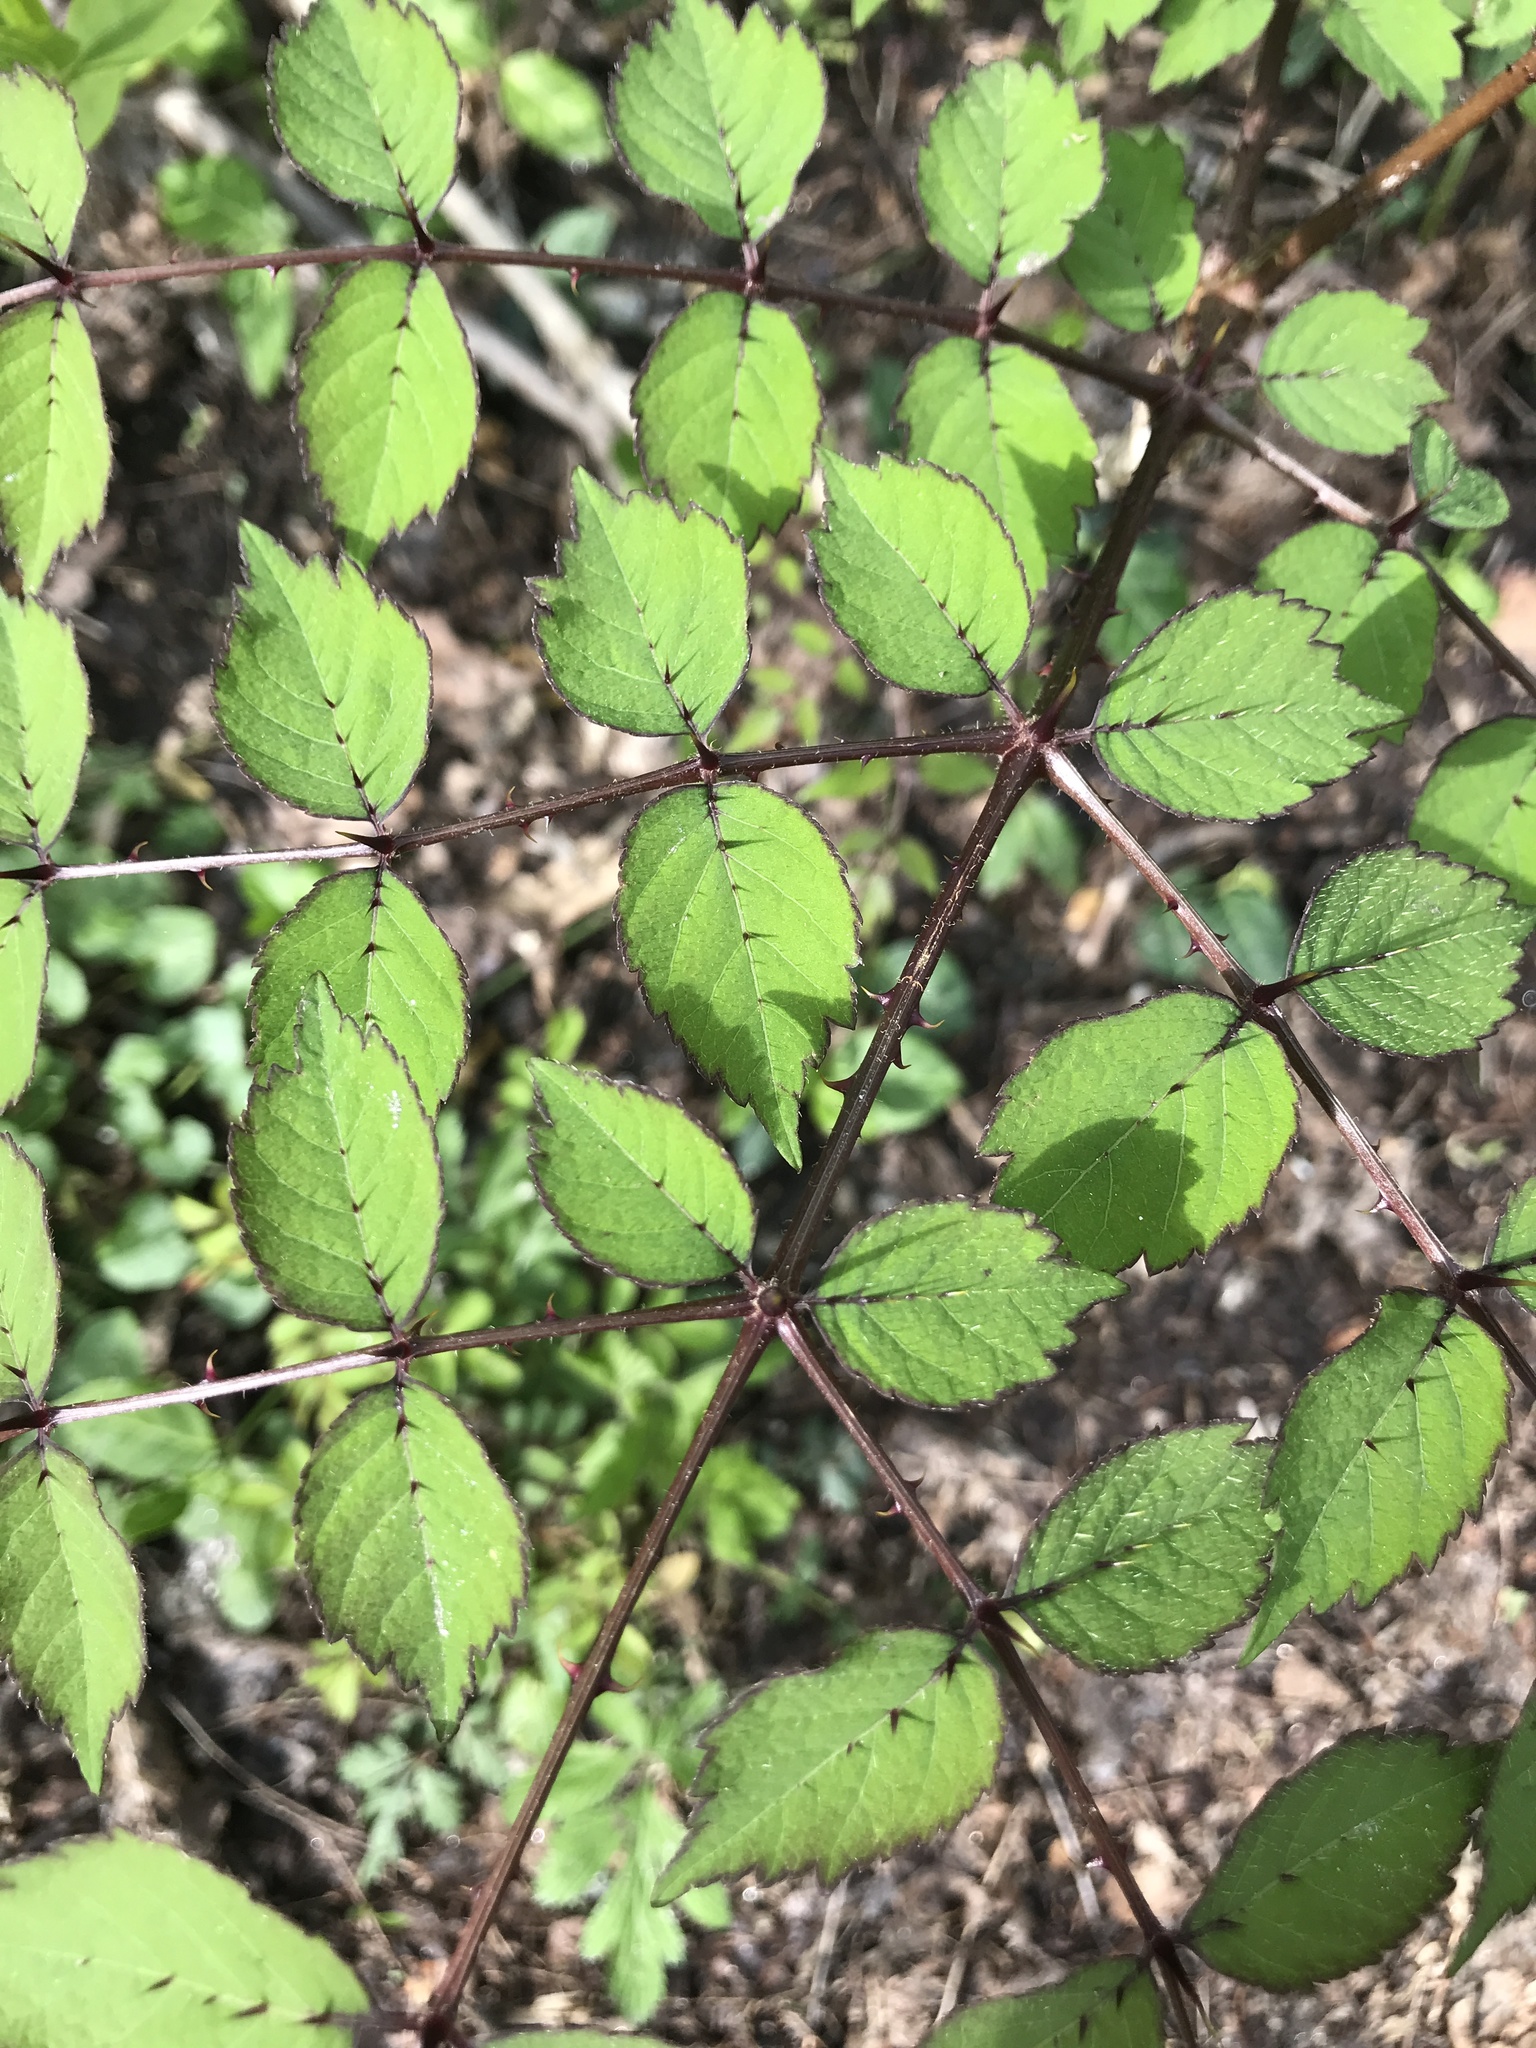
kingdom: Plantae
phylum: Tracheophyta
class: Magnoliopsida
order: Apiales
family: Araliaceae
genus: Aralia
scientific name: Aralia elata
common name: Japanese angelica-tree
